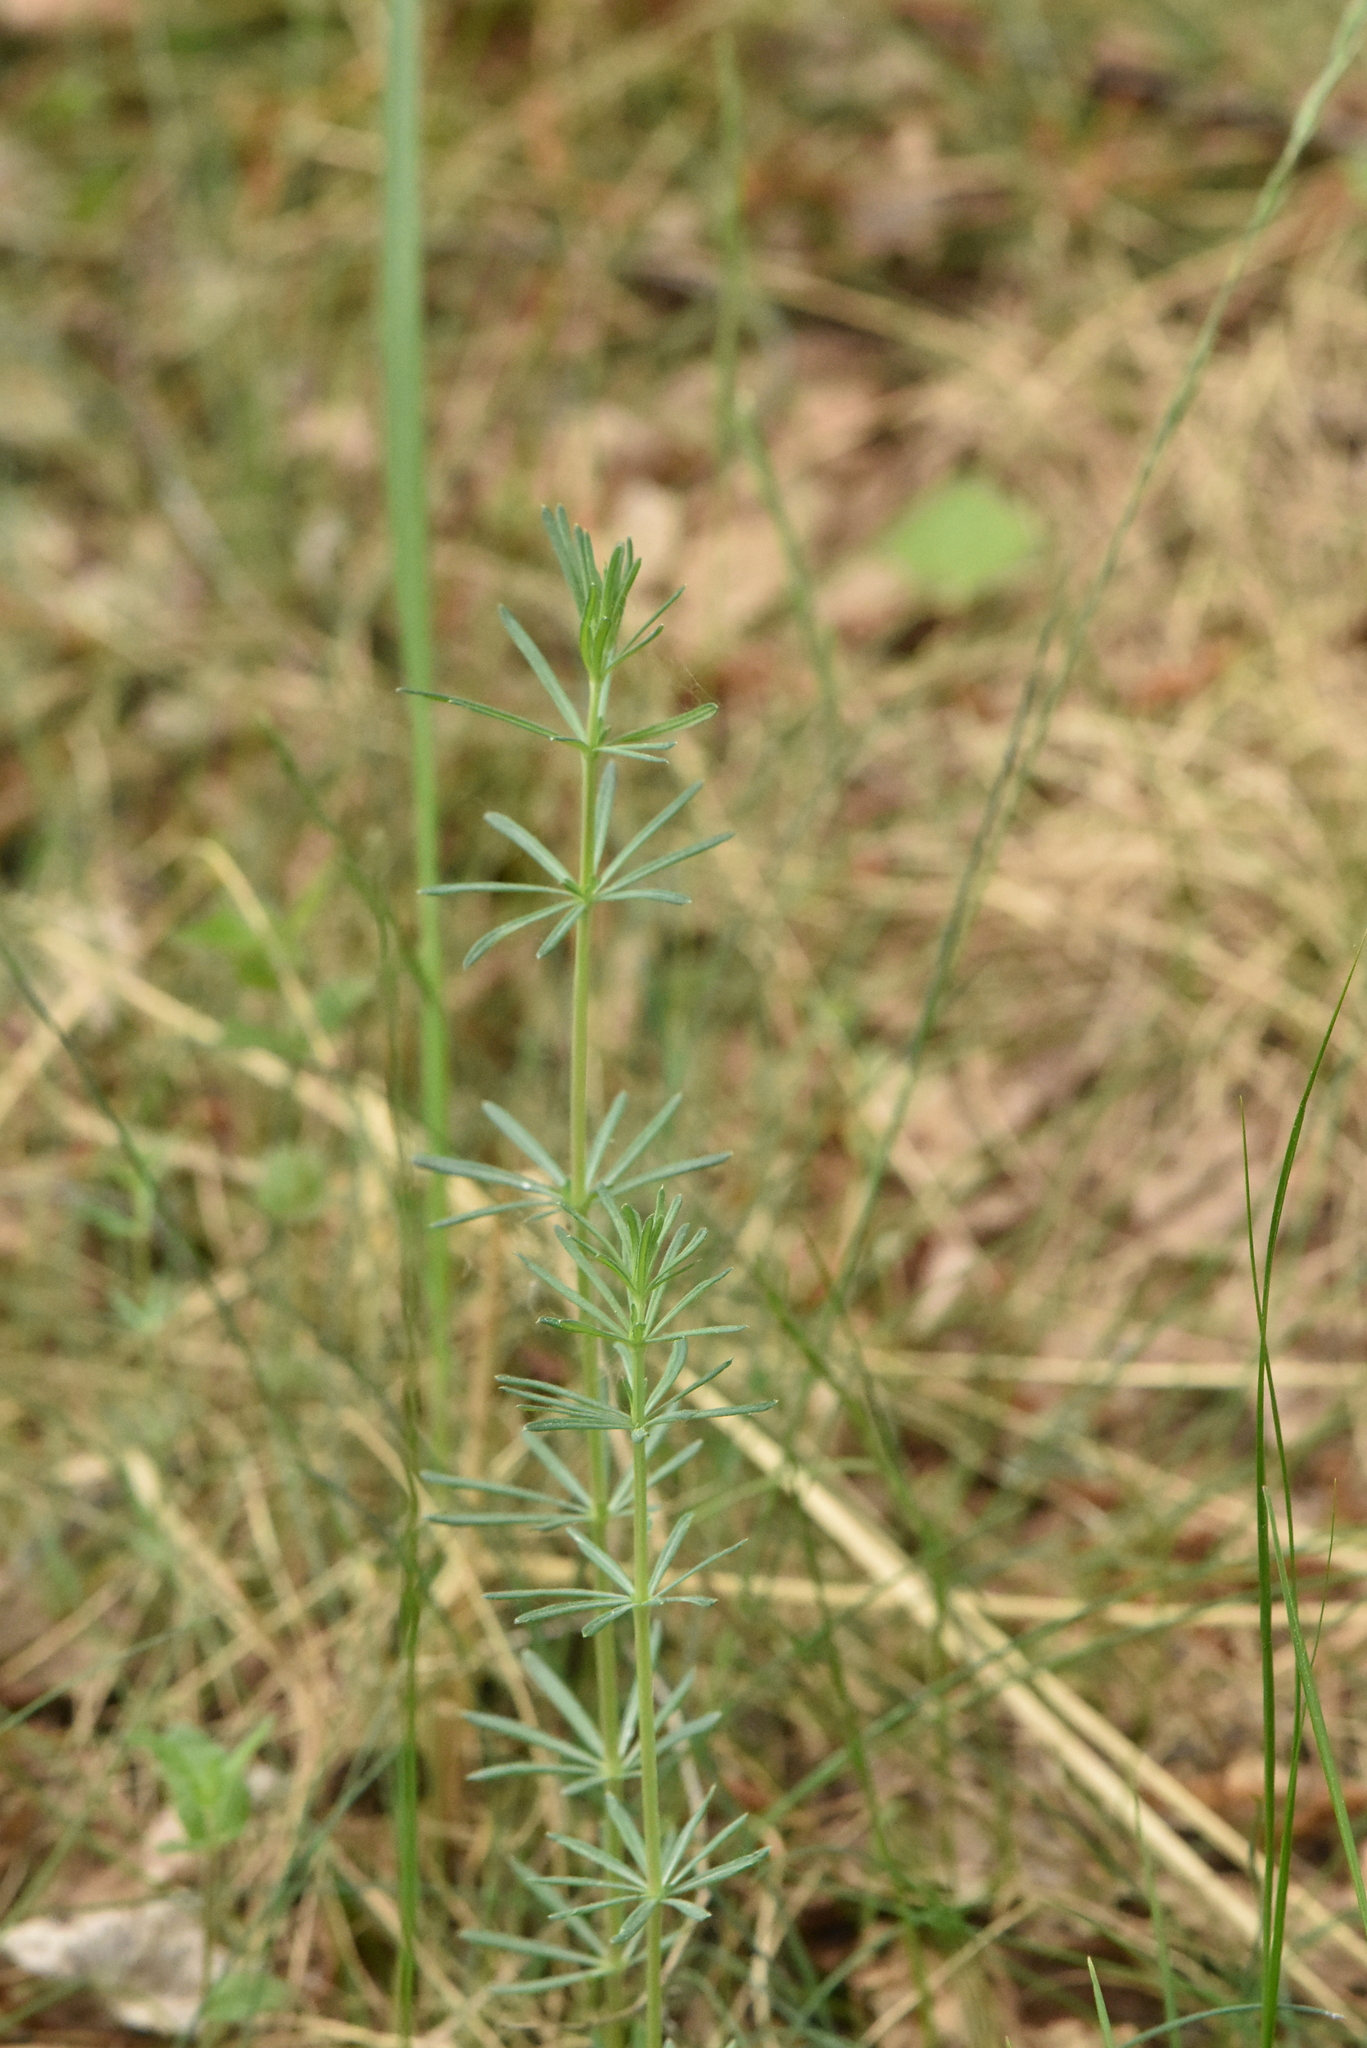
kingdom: Plantae
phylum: Tracheophyta
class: Magnoliopsida
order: Gentianales
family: Rubiaceae
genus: Galium
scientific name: Galium verum
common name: Lady's bedstraw
